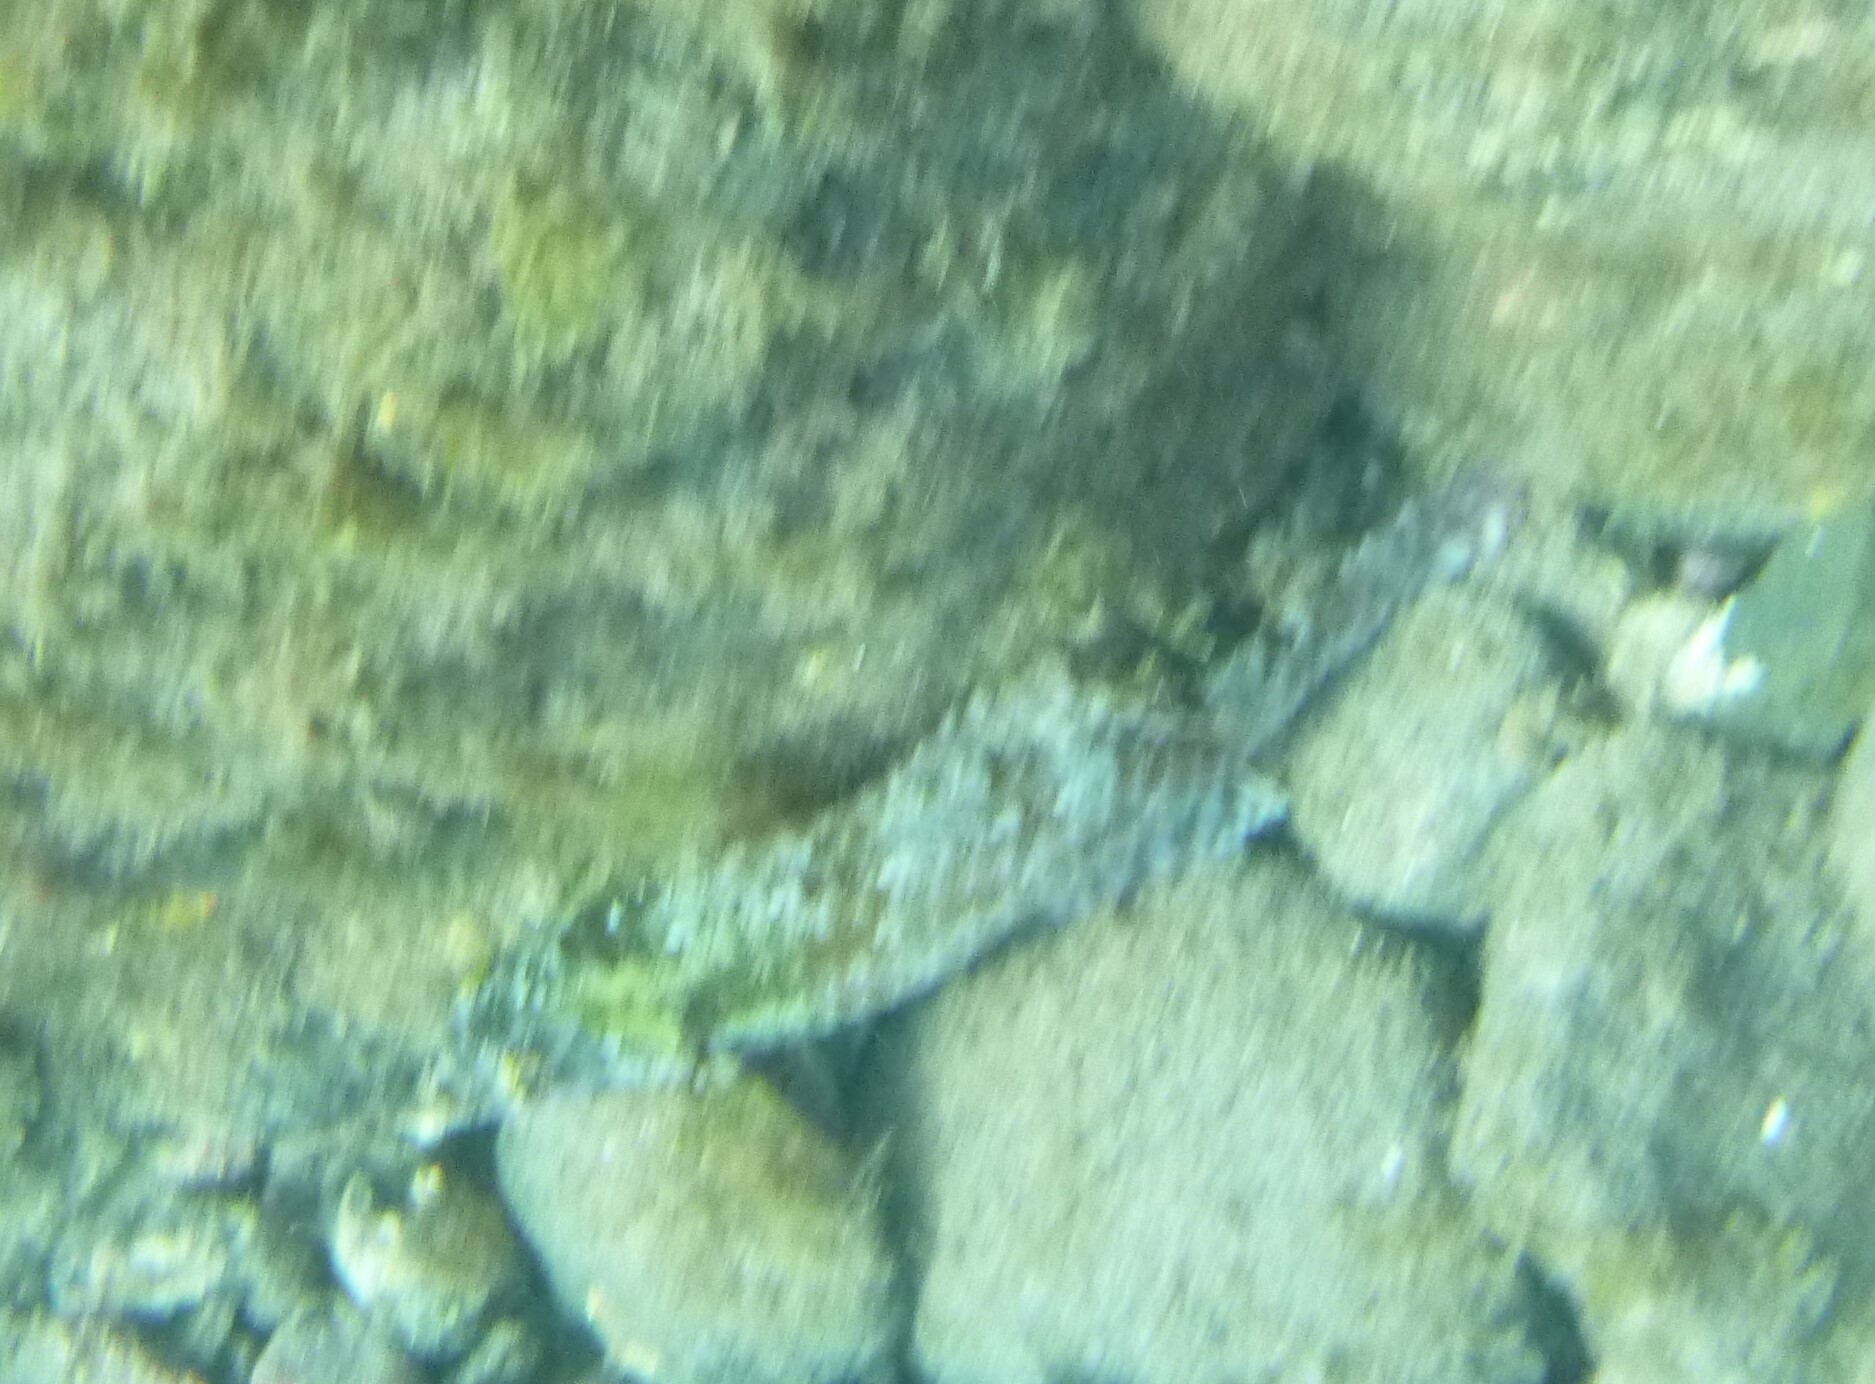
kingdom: Animalia
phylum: Chordata
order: Perciformes
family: Scaridae
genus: Sparisoma
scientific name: Sparisoma cretense
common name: Parrotfish
